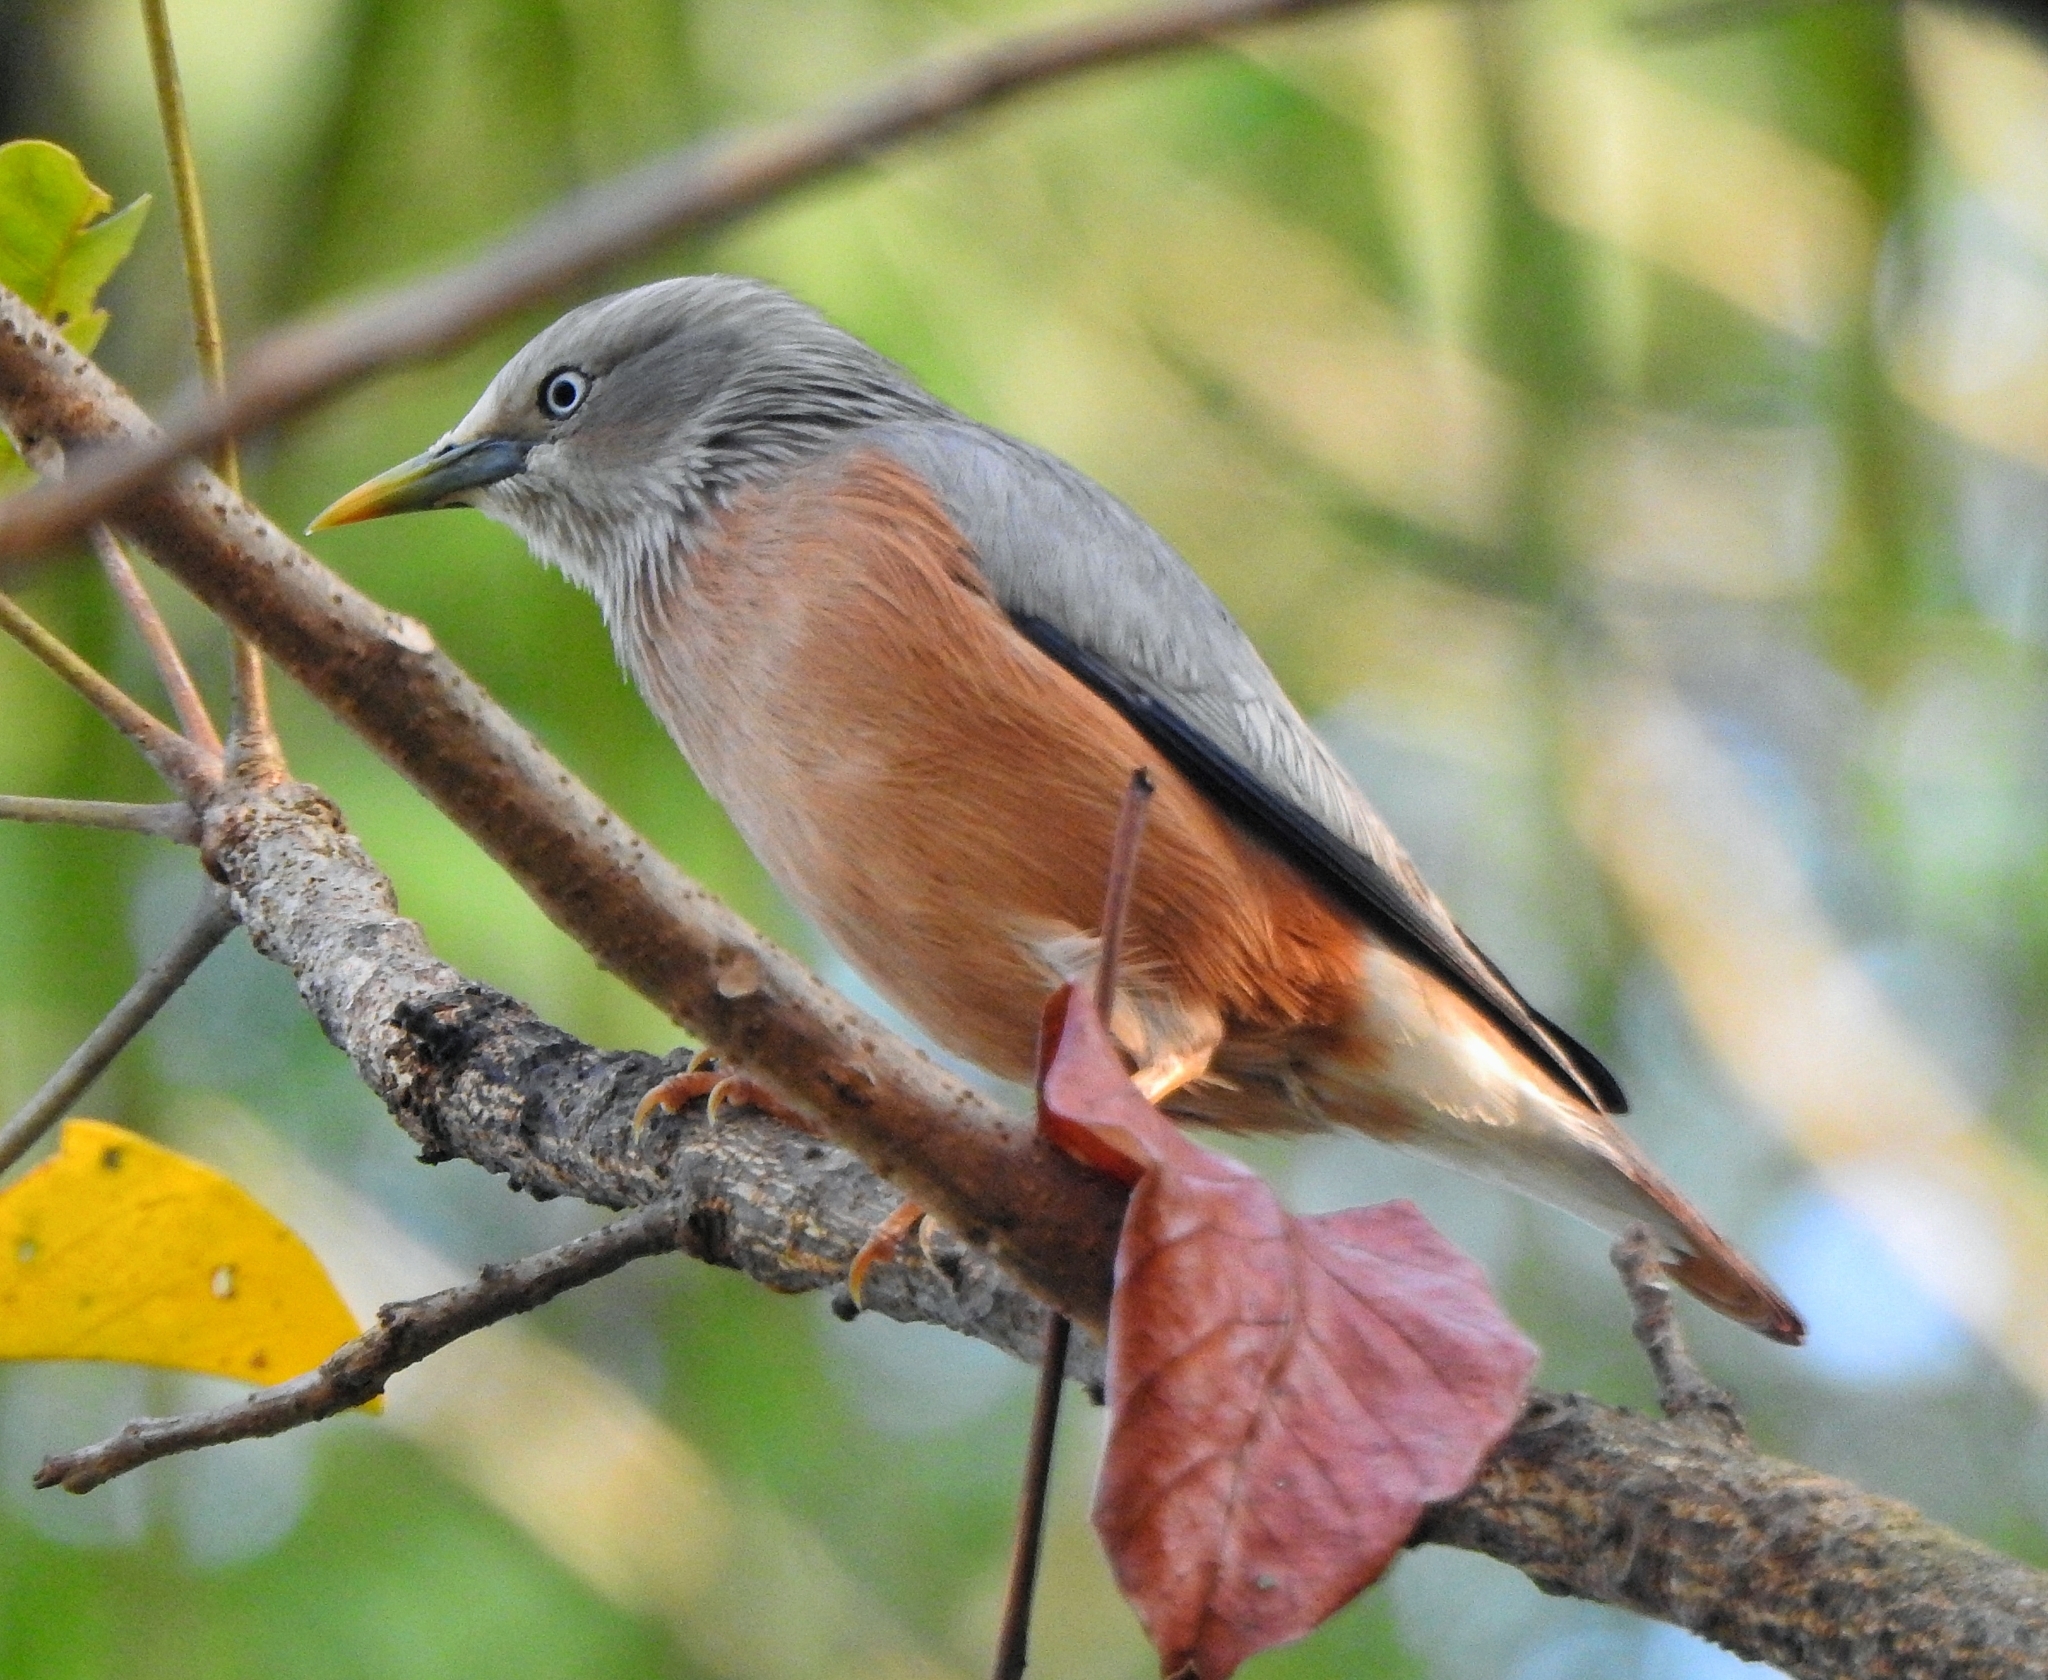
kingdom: Animalia
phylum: Chordata
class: Aves
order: Passeriformes
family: Sturnidae
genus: Sturnia
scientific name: Sturnia malabarica
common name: Chestnut-tailed starling
